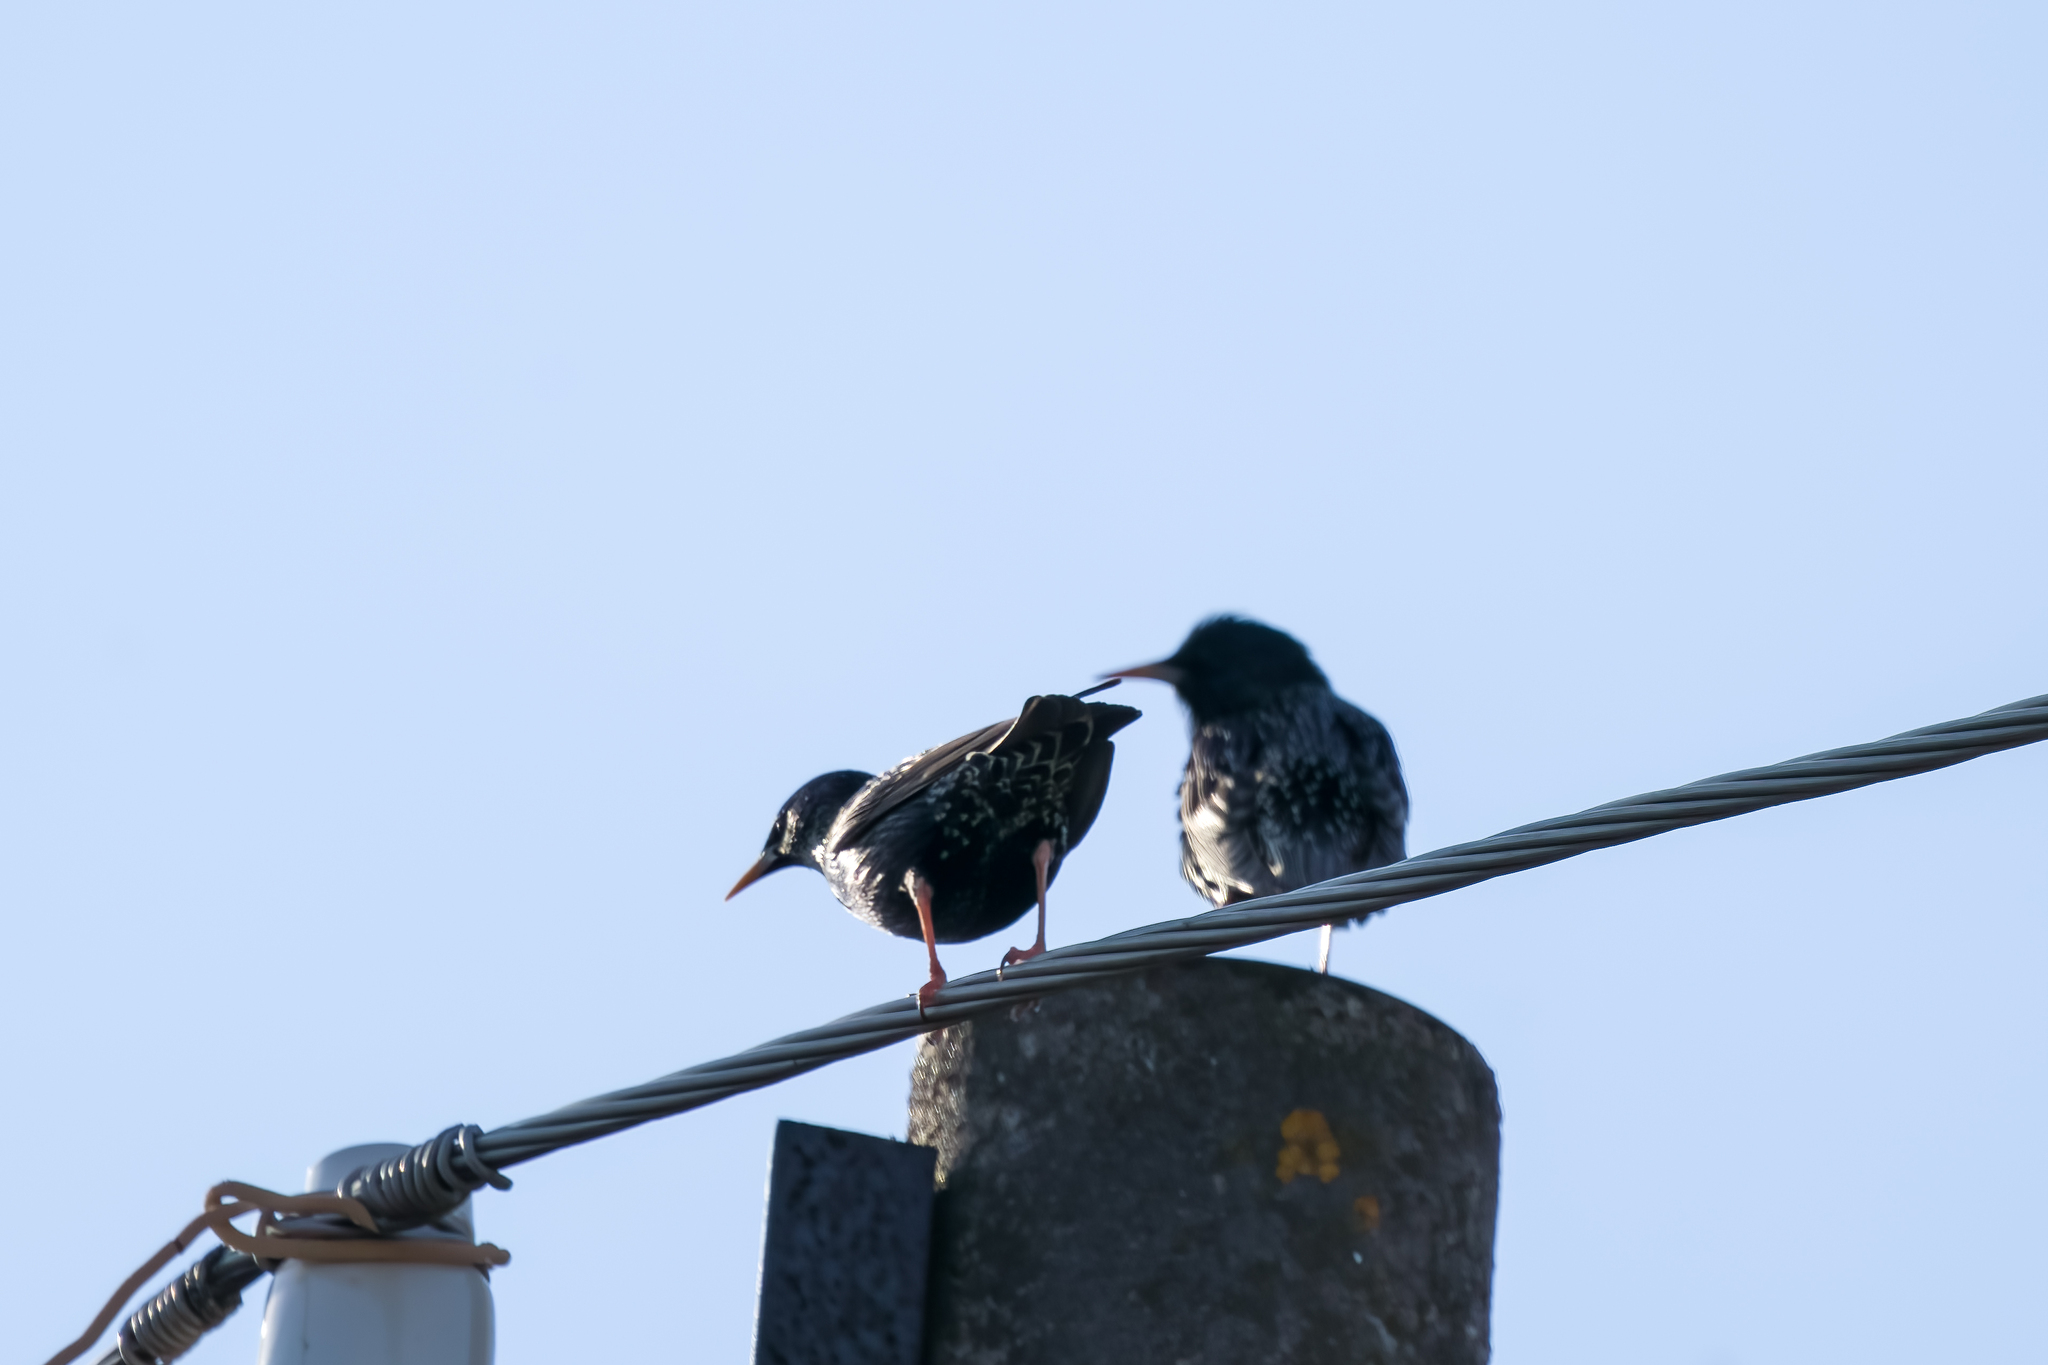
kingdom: Animalia
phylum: Chordata
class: Aves
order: Passeriformes
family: Sturnidae
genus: Sturnus
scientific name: Sturnus vulgaris
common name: Common starling
